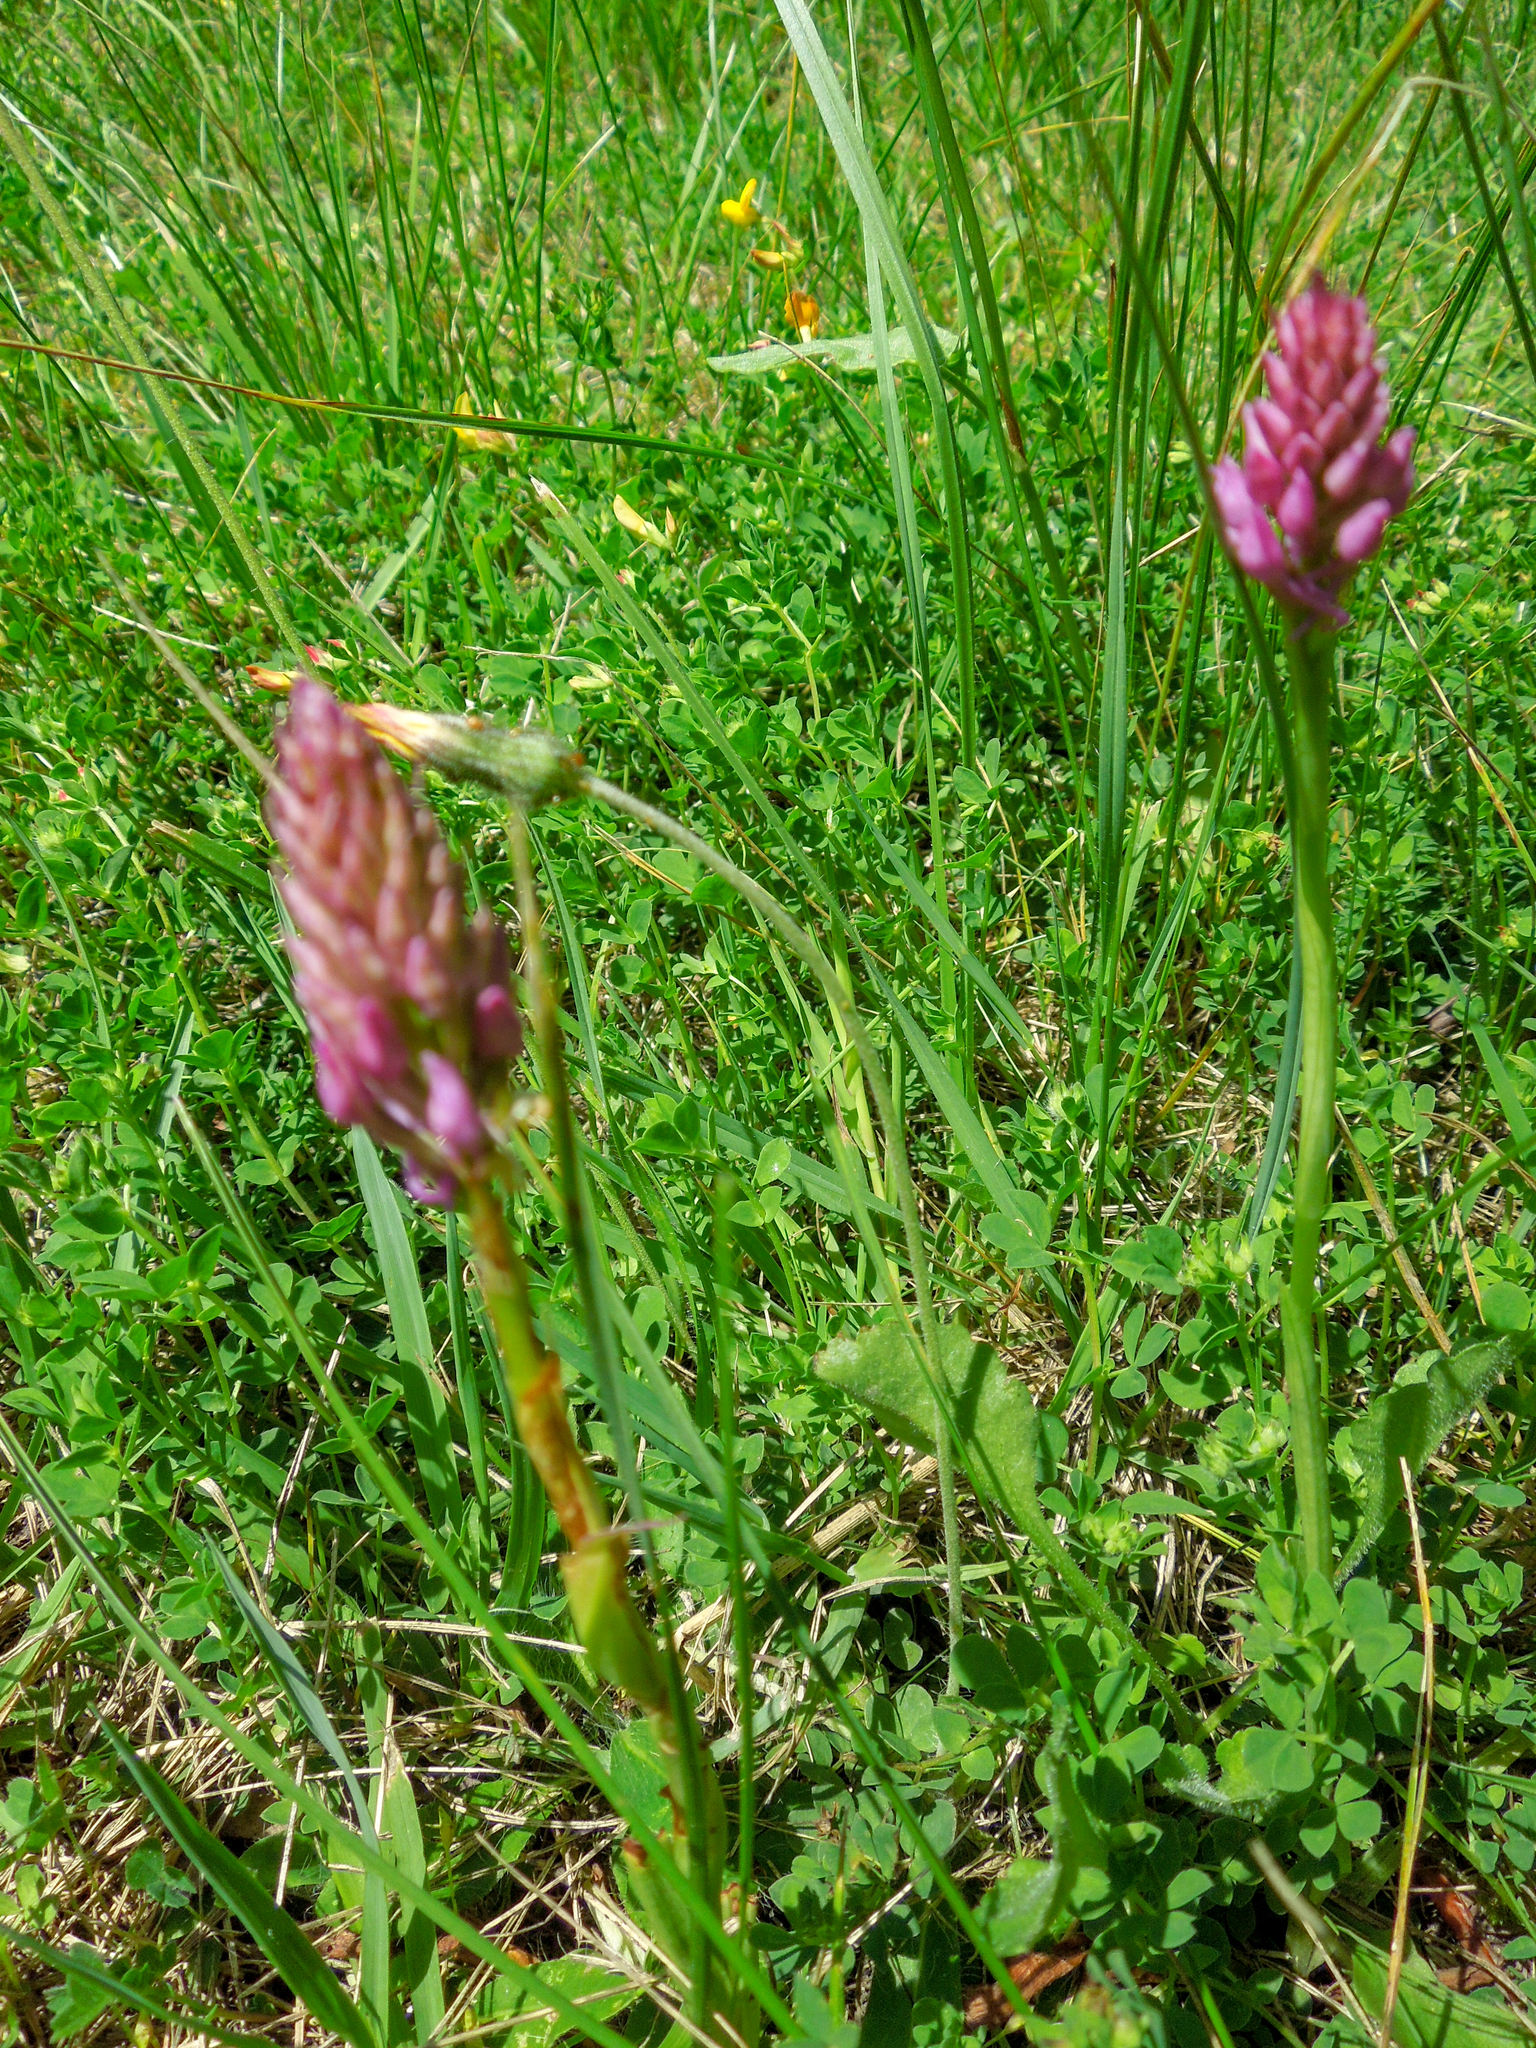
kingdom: Plantae
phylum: Tracheophyta
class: Liliopsida
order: Asparagales
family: Orchidaceae
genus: Anacamptis
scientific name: Anacamptis pyramidalis
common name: Pyramidal orchid
